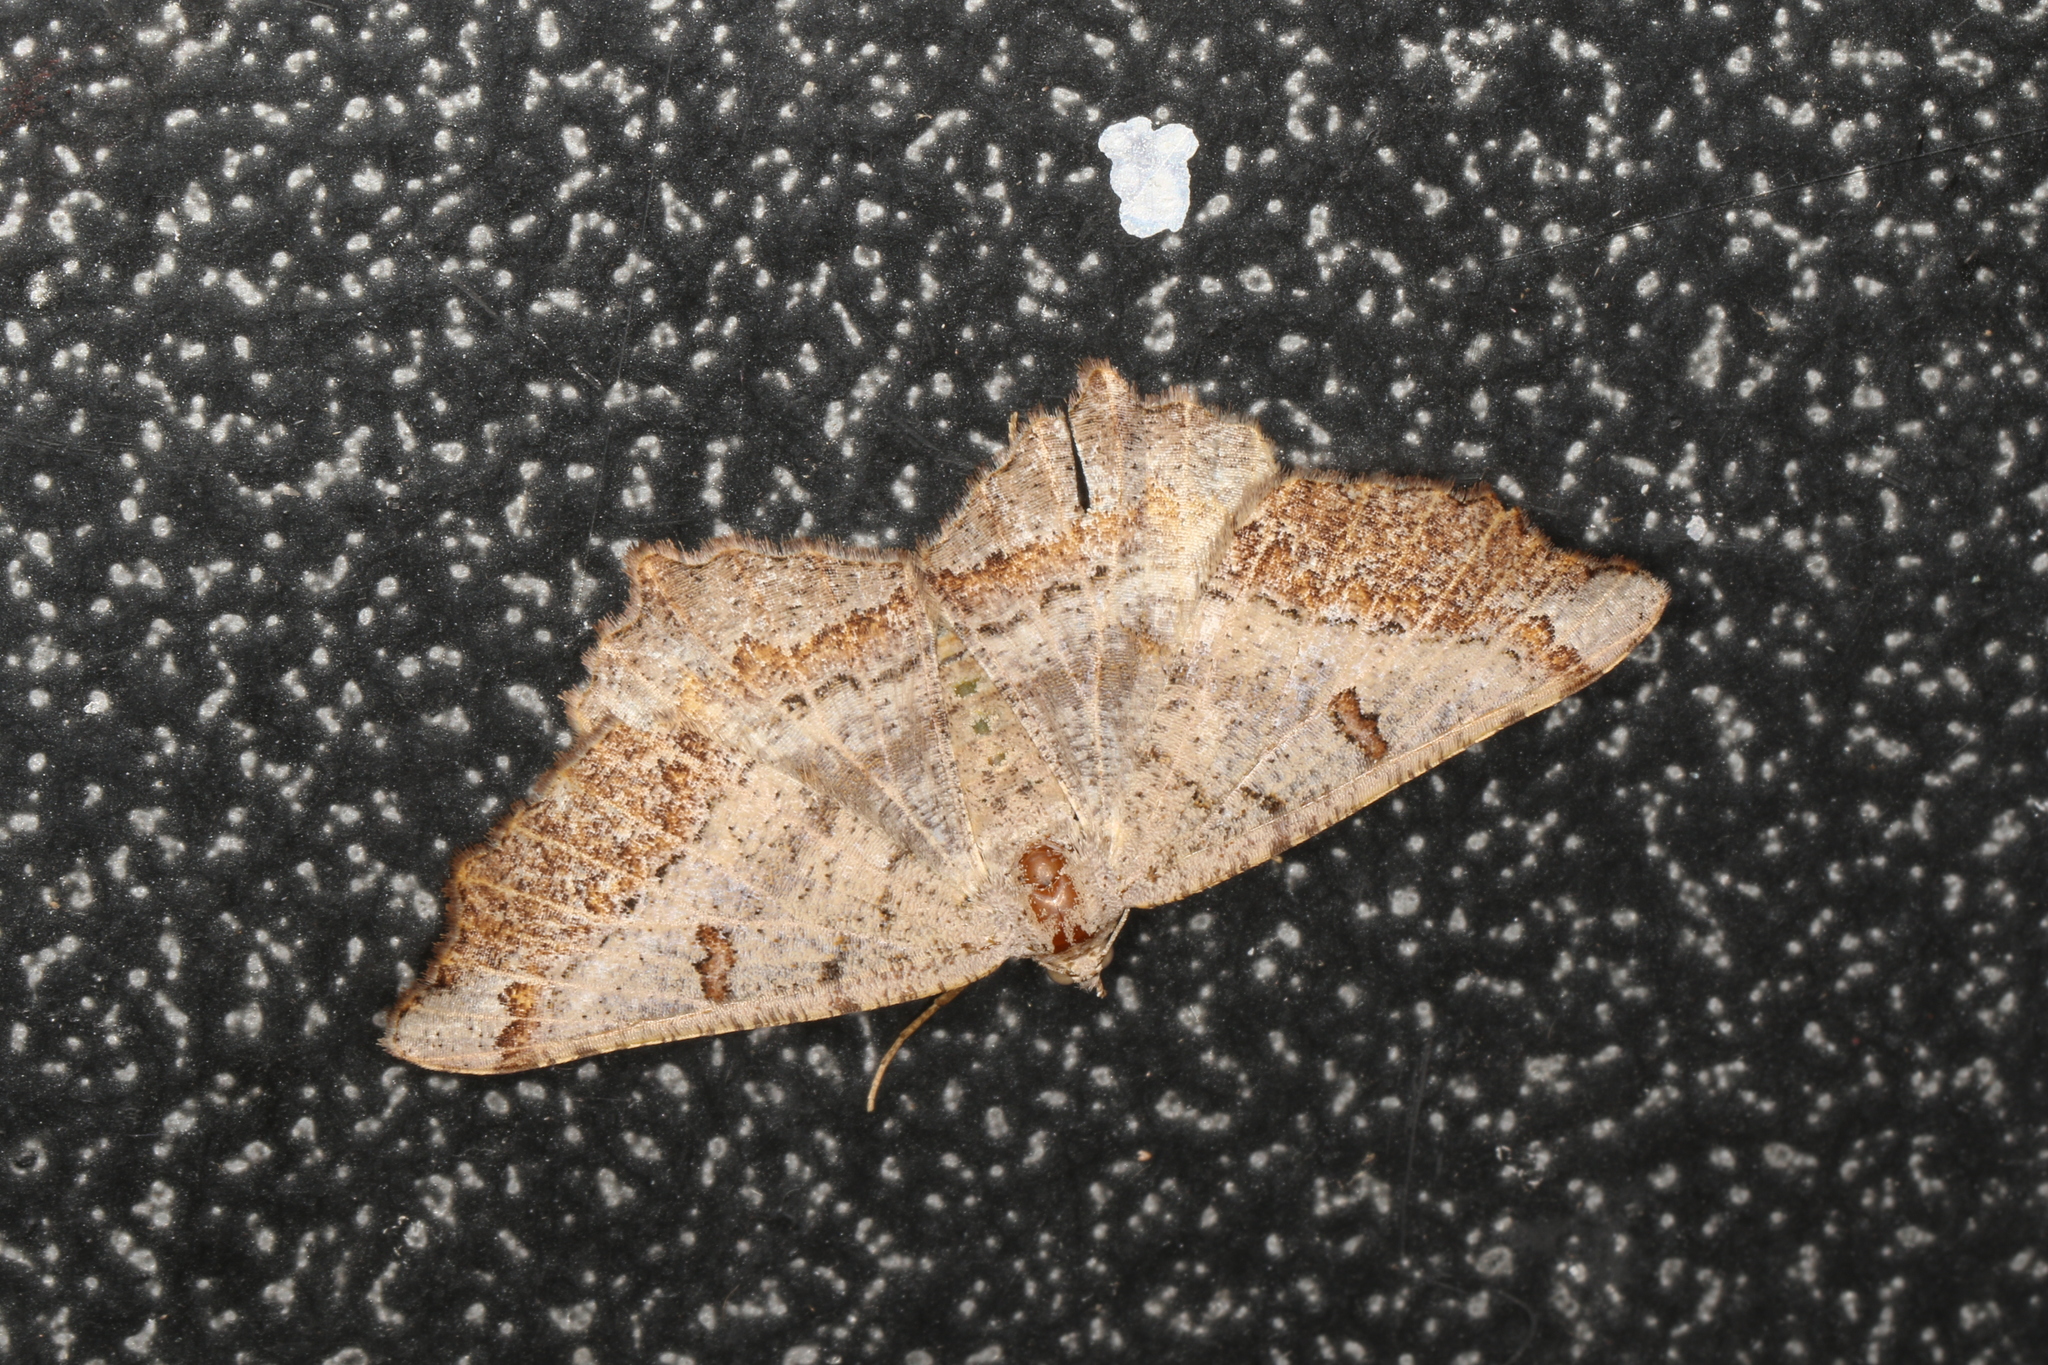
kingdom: Animalia
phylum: Arthropoda
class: Insecta
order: Lepidoptera
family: Geometridae
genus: Dissomorphia
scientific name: Dissomorphia australiaria
